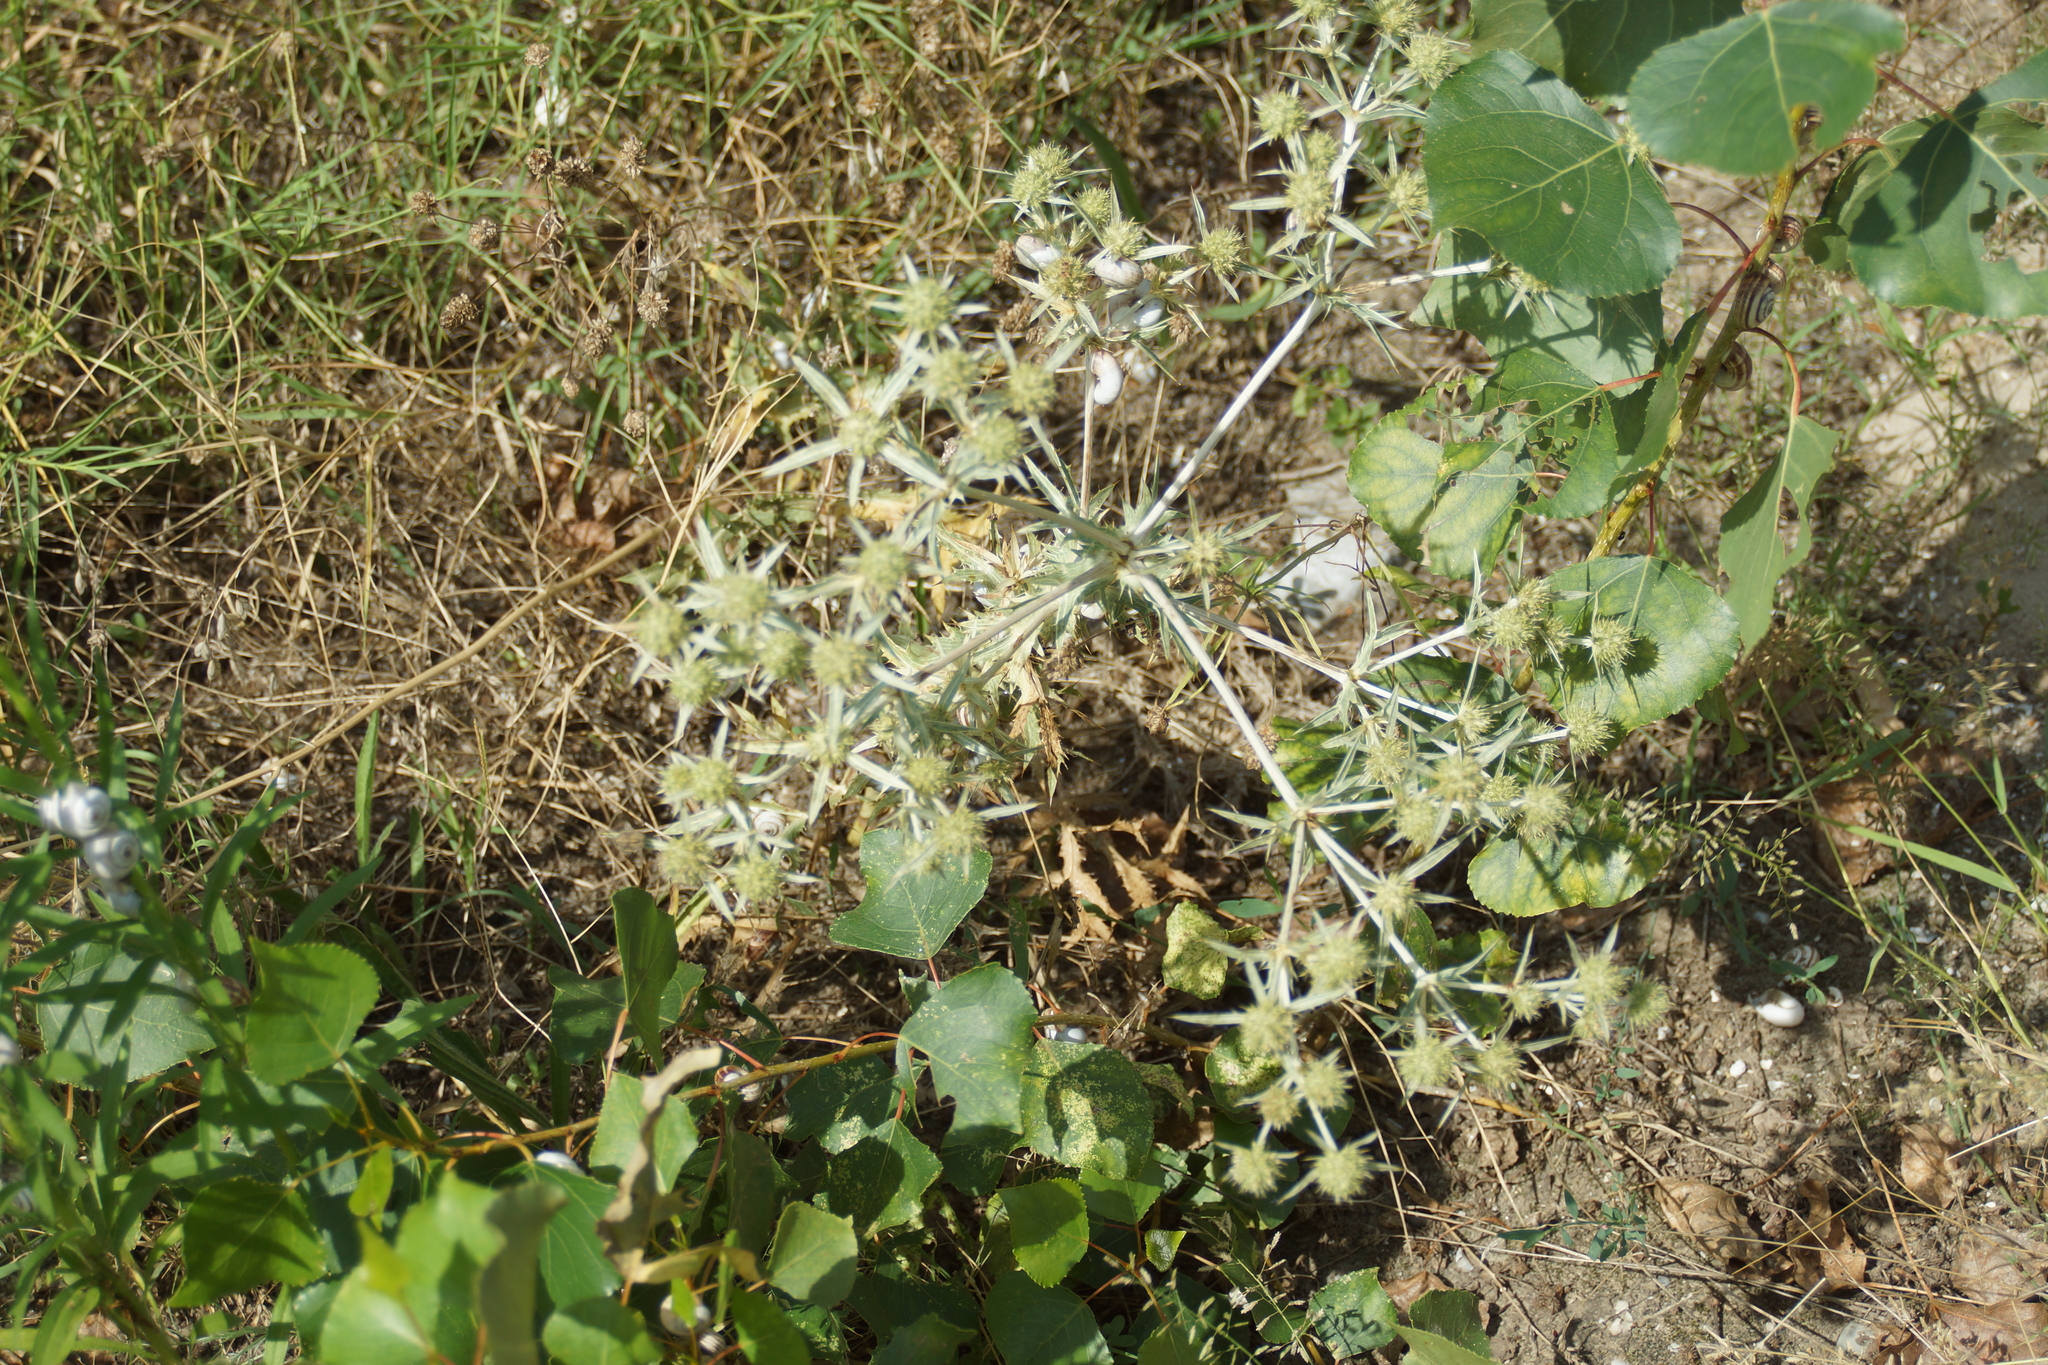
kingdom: Plantae
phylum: Tracheophyta
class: Magnoliopsida
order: Apiales
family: Apiaceae
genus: Eryngium
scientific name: Eryngium campestre
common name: Field eryngo
